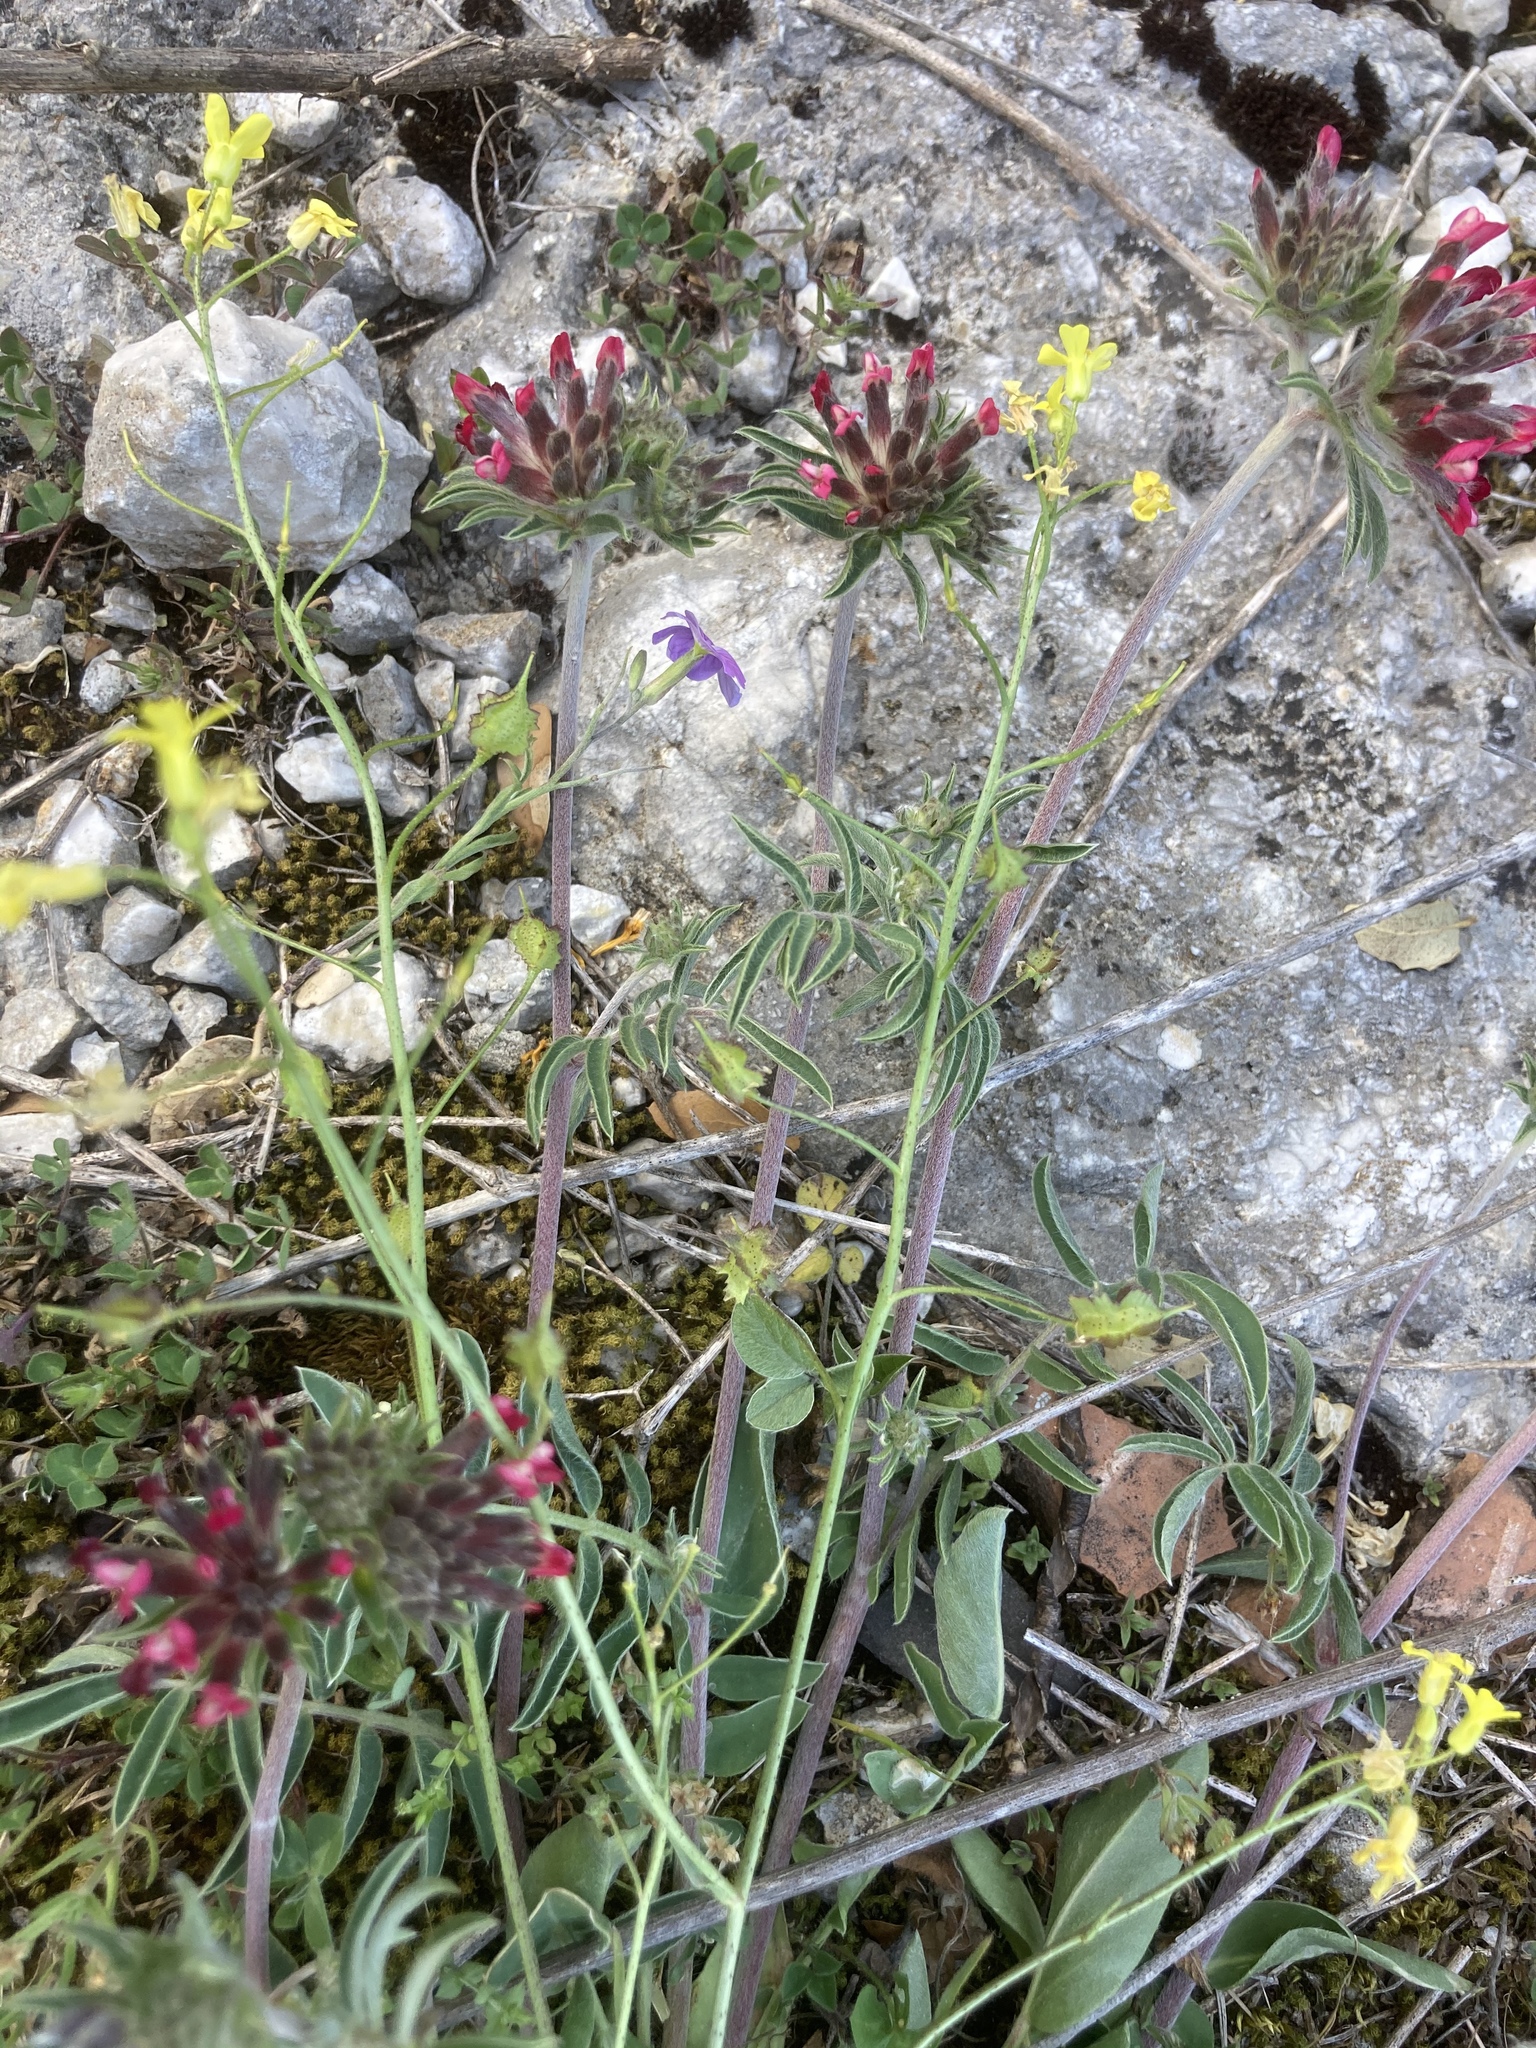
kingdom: Plantae
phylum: Tracheophyta
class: Magnoliopsida
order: Brassicales
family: Brassicaceae
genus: Bunias
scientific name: Bunias erucago
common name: Southern warty-cabbage
